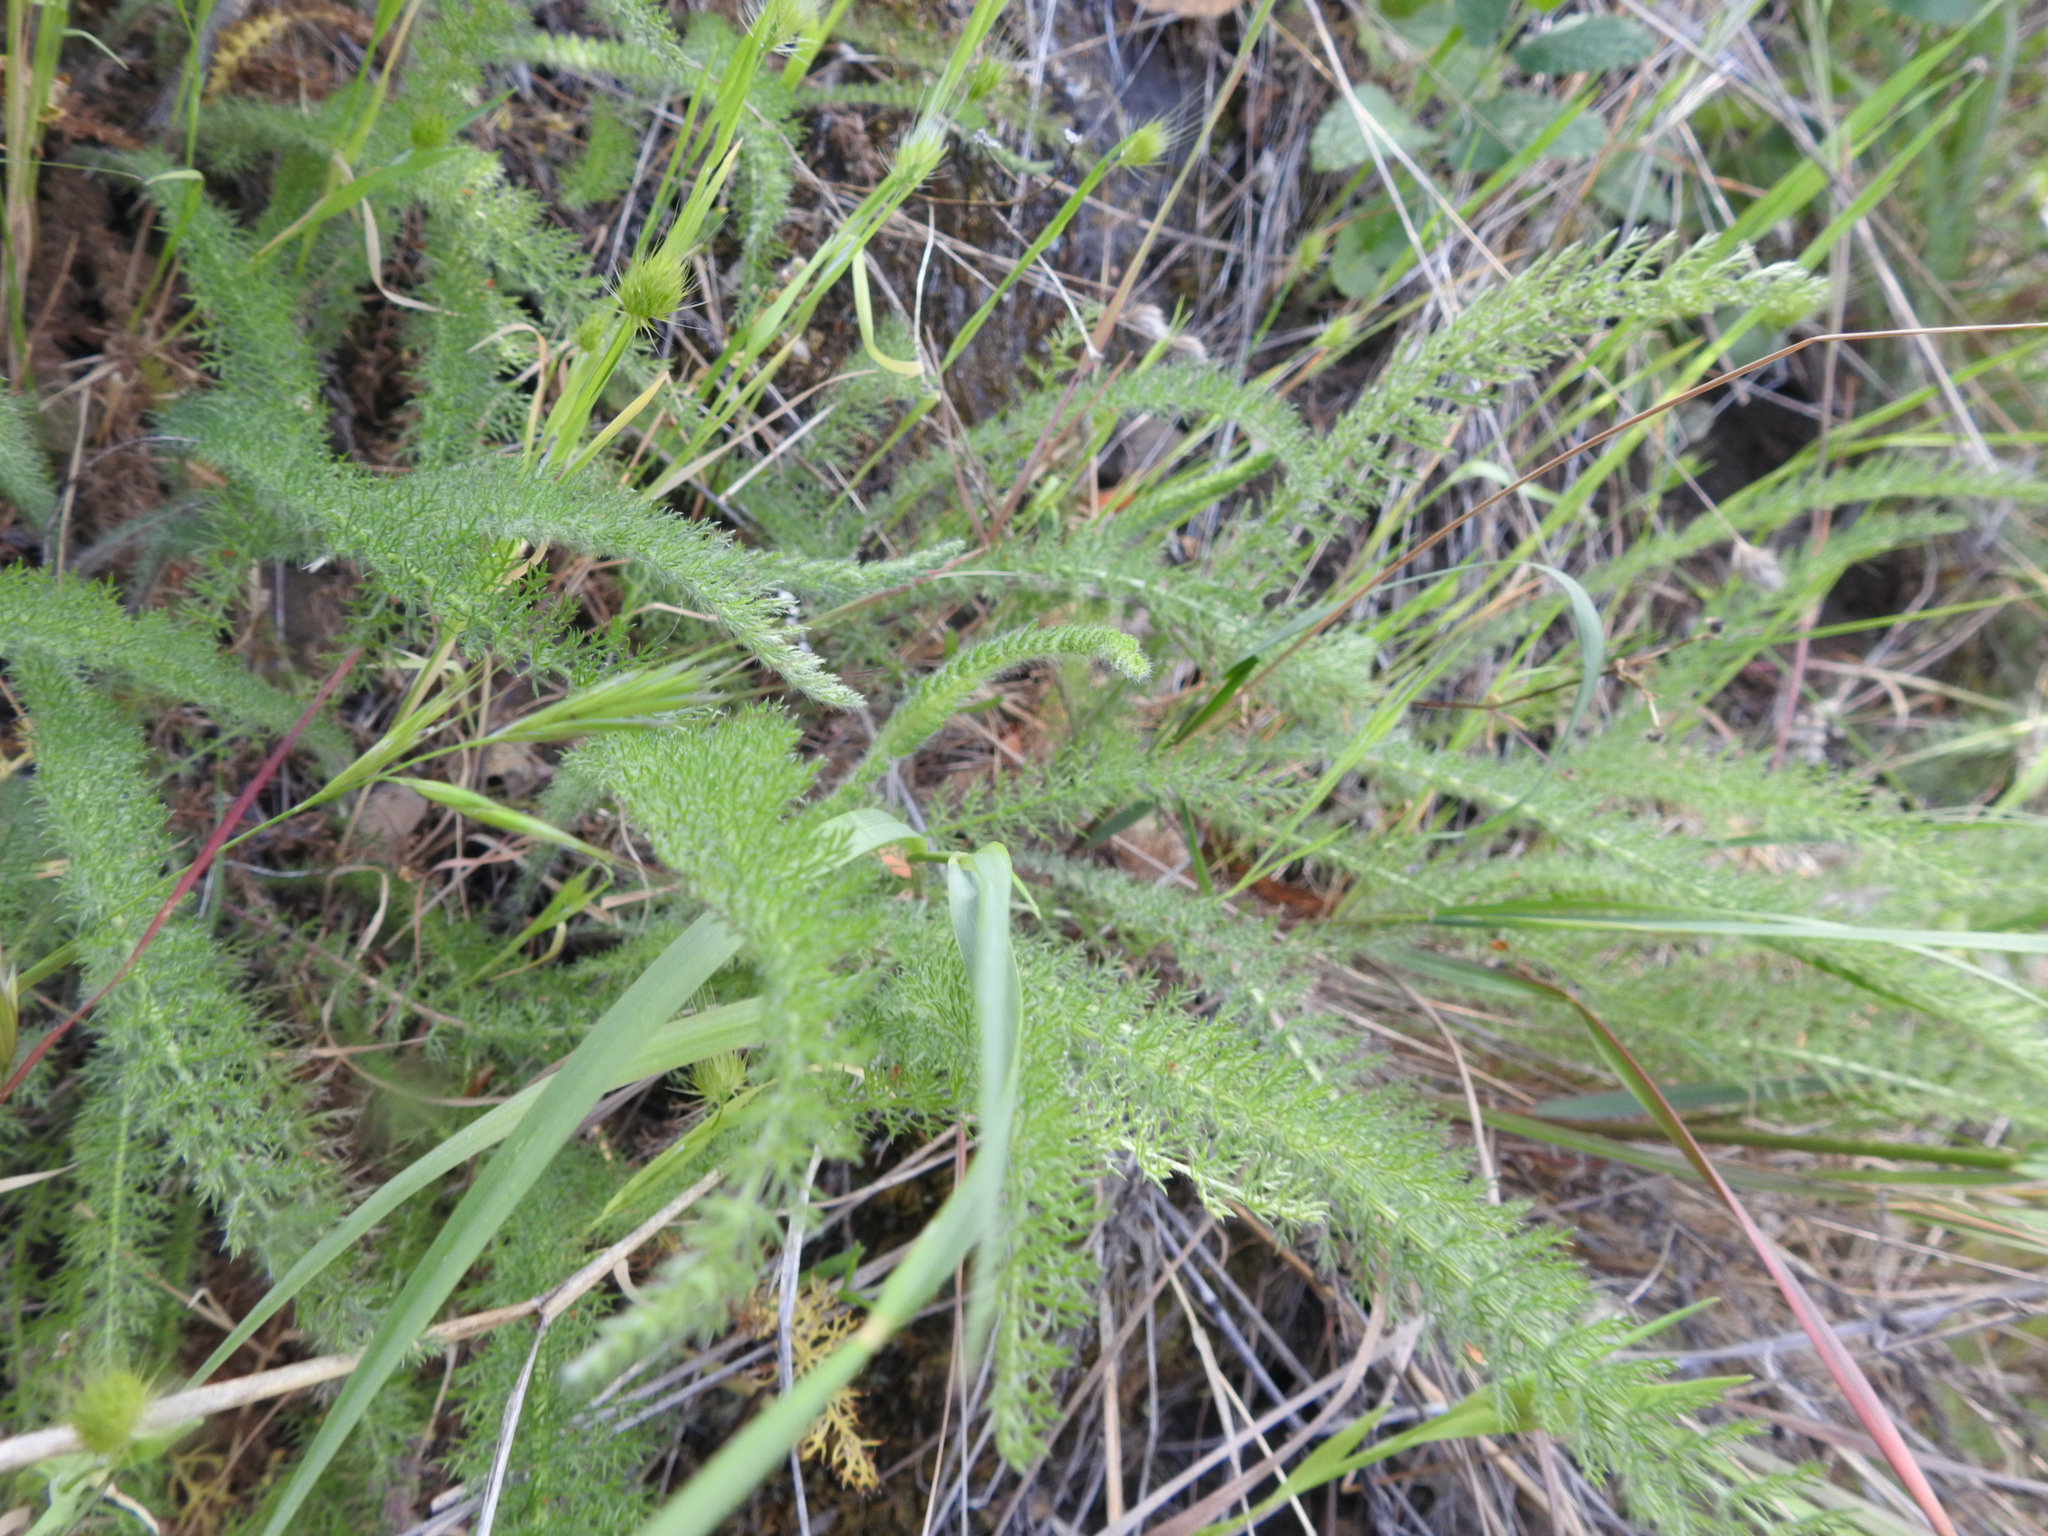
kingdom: Plantae
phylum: Tracheophyta
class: Magnoliopsida
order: Asterales
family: Asteraceae
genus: Achillea
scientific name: Achillea millefolium
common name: Yarrow
